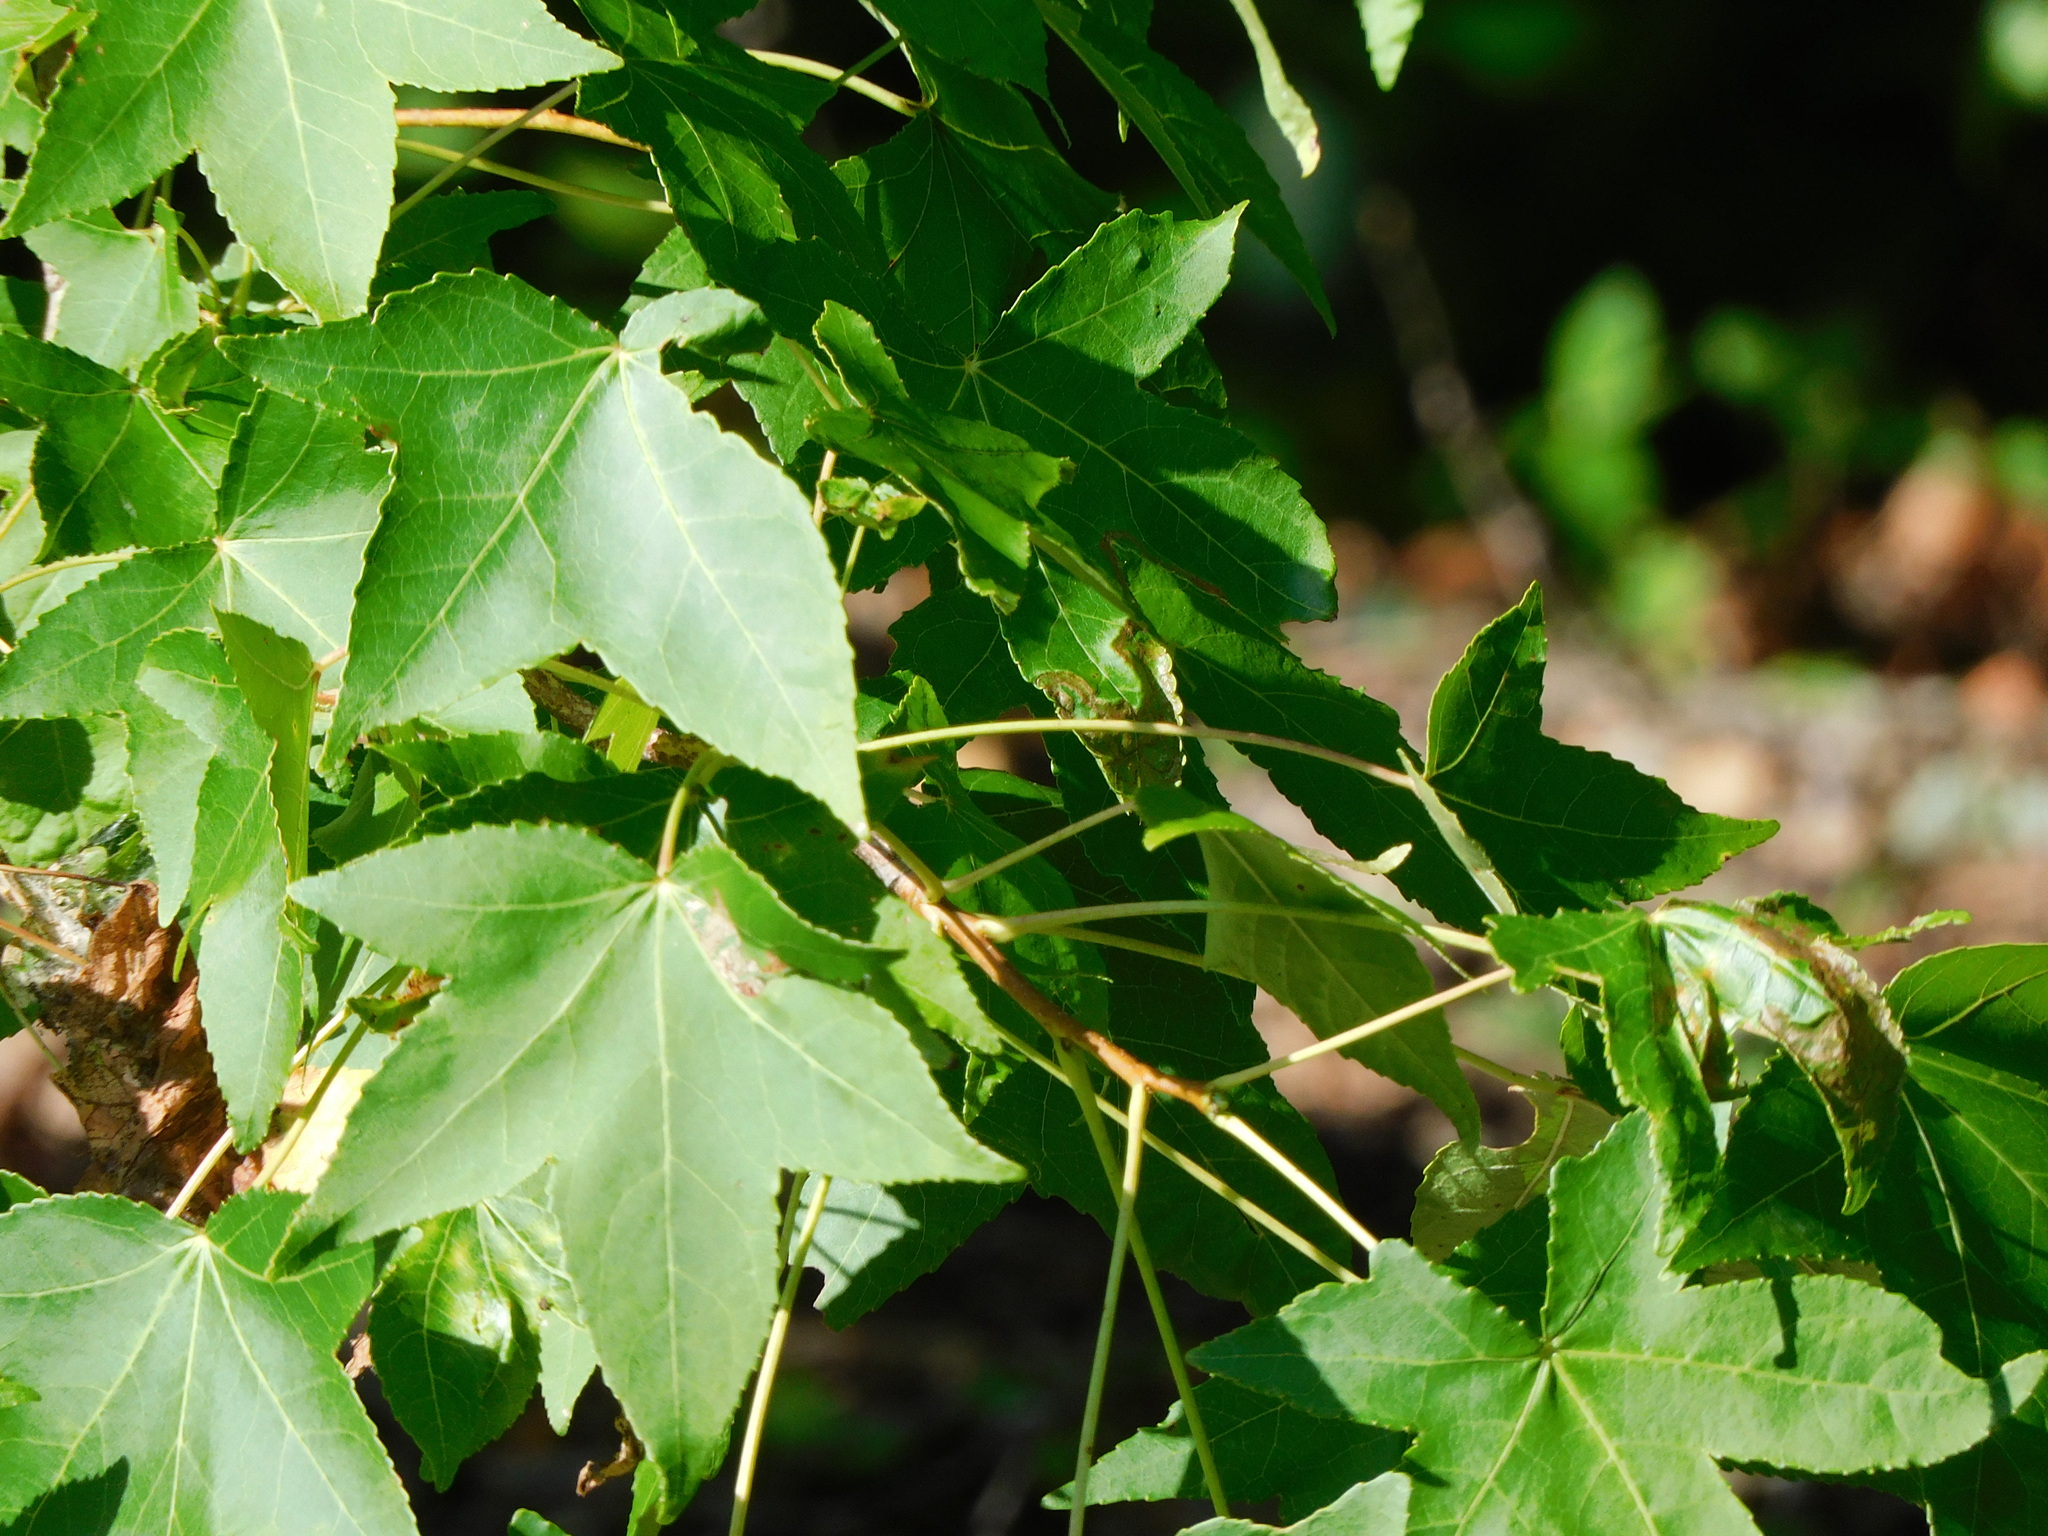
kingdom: Plantae
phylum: Tracheophyta
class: Magnoliopsida
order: Saxifragales
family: Altingiaceae
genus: Liquidambar
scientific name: Liquidambar styraciflua
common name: Sweet gum
